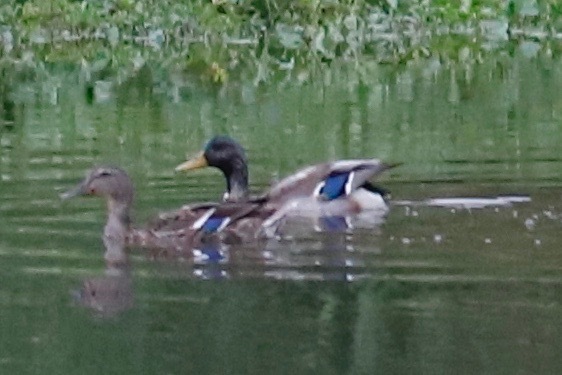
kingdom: Animalia
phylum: Chordata
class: Aves
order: Anseriformes
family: Anatidae
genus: Anas
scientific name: Anas platyrhynchos
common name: Mallard
